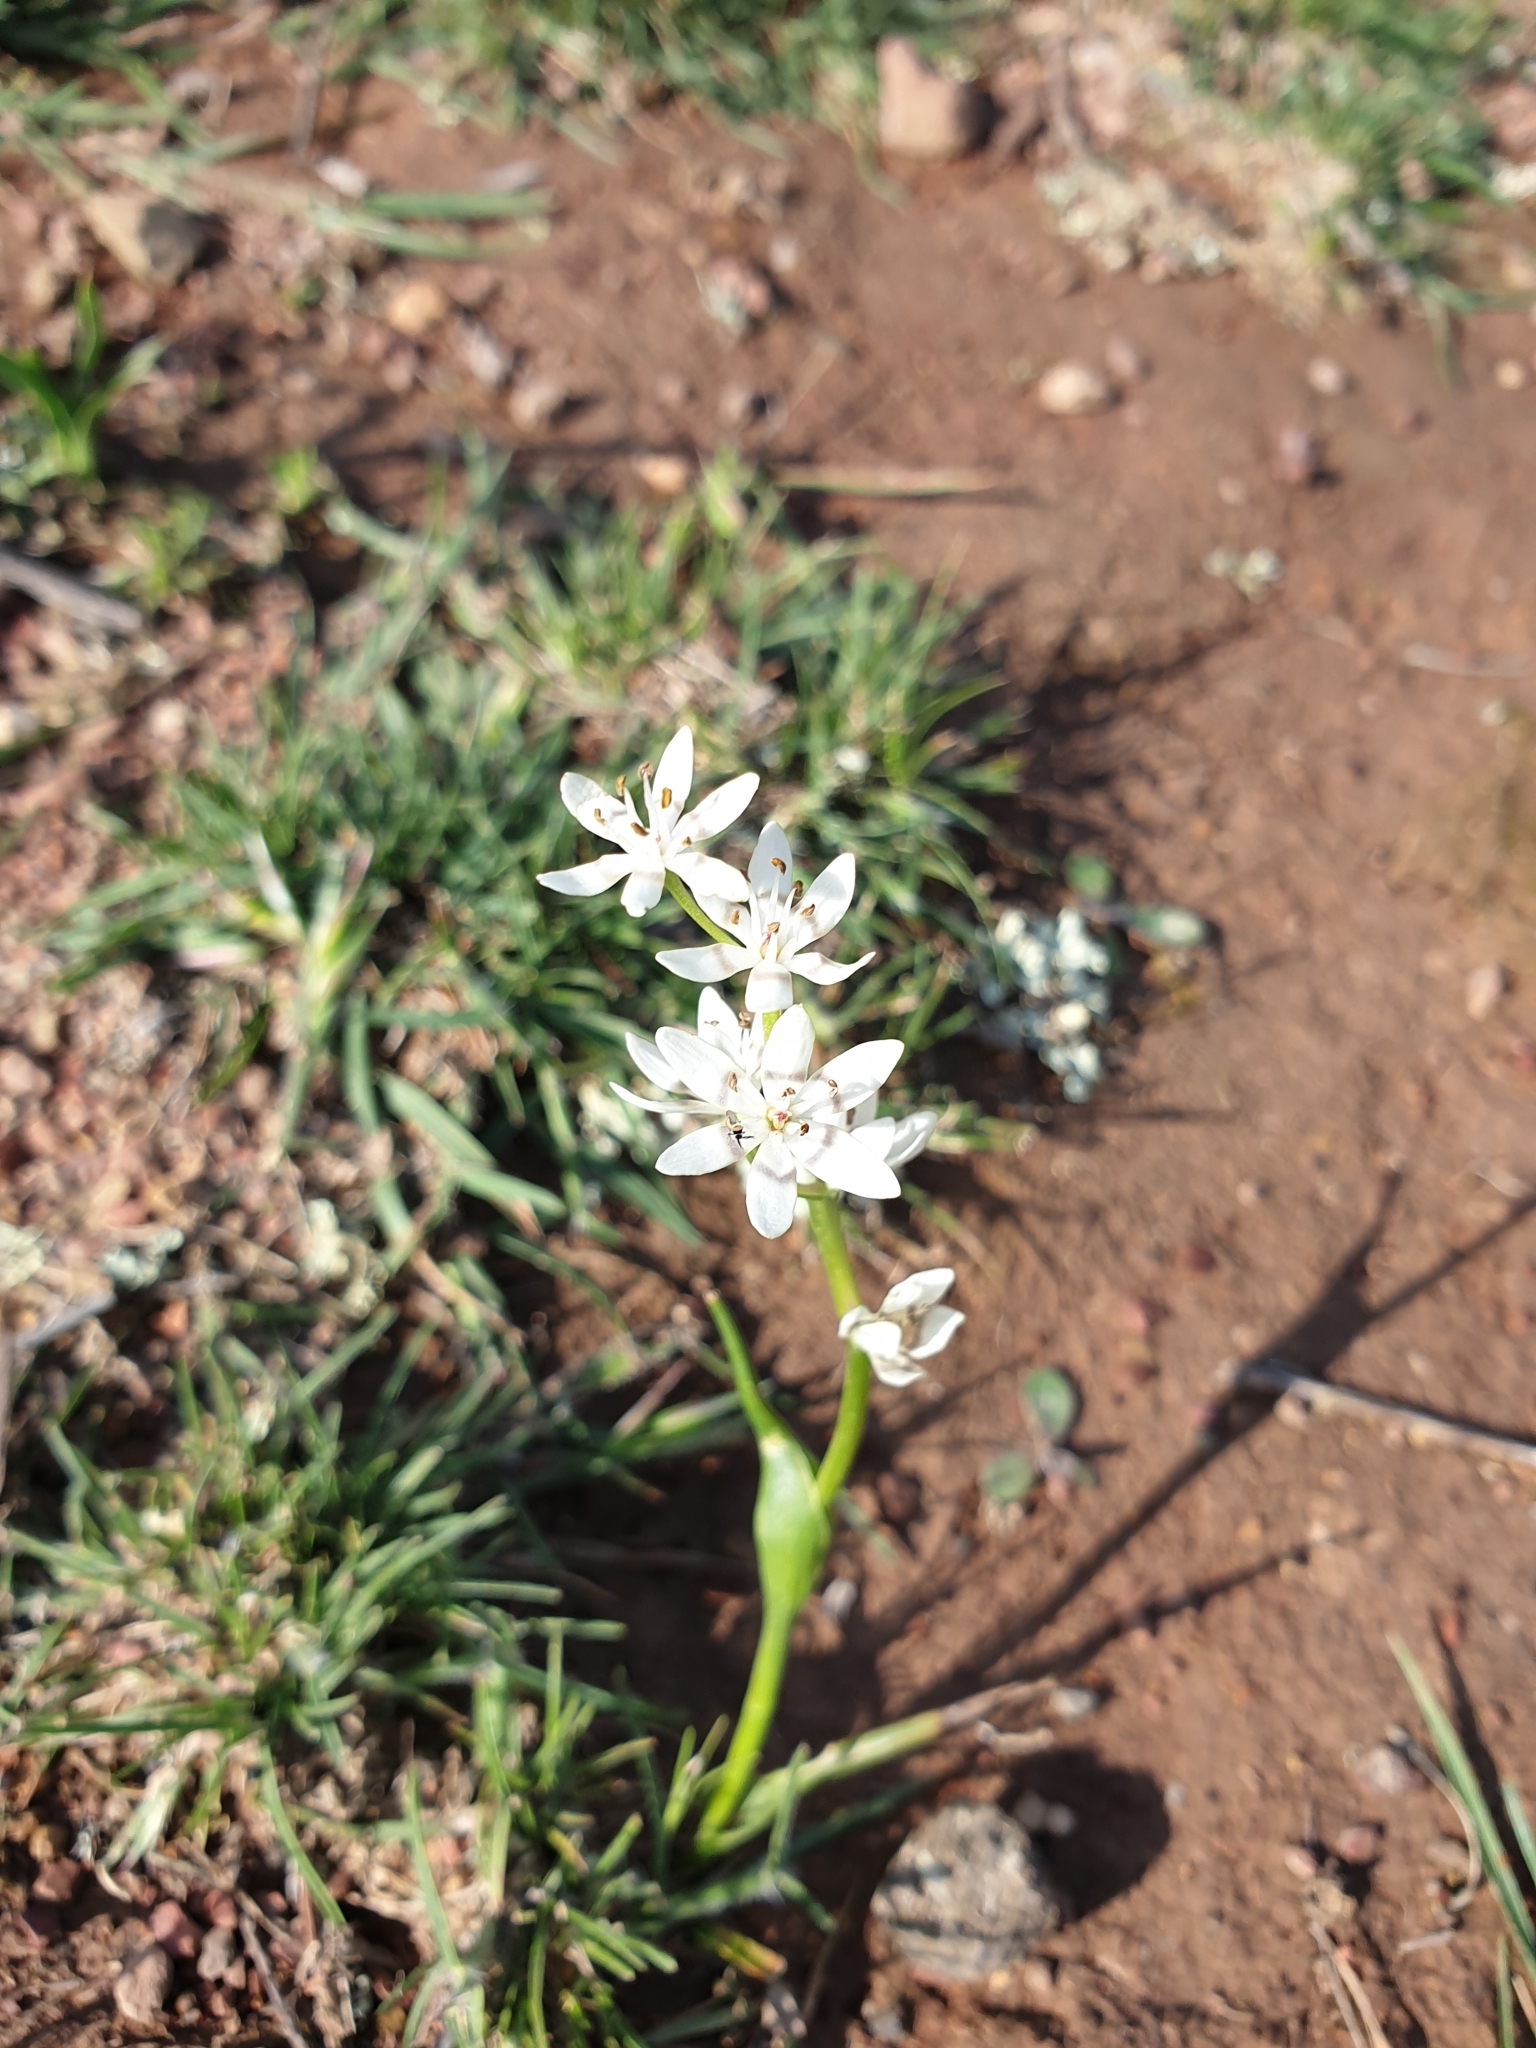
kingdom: Plantae
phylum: Tracheophyta
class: Liliopsida
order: Liliales
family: Colchicaceae
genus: Wurmbea
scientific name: Wurmbea dioica
